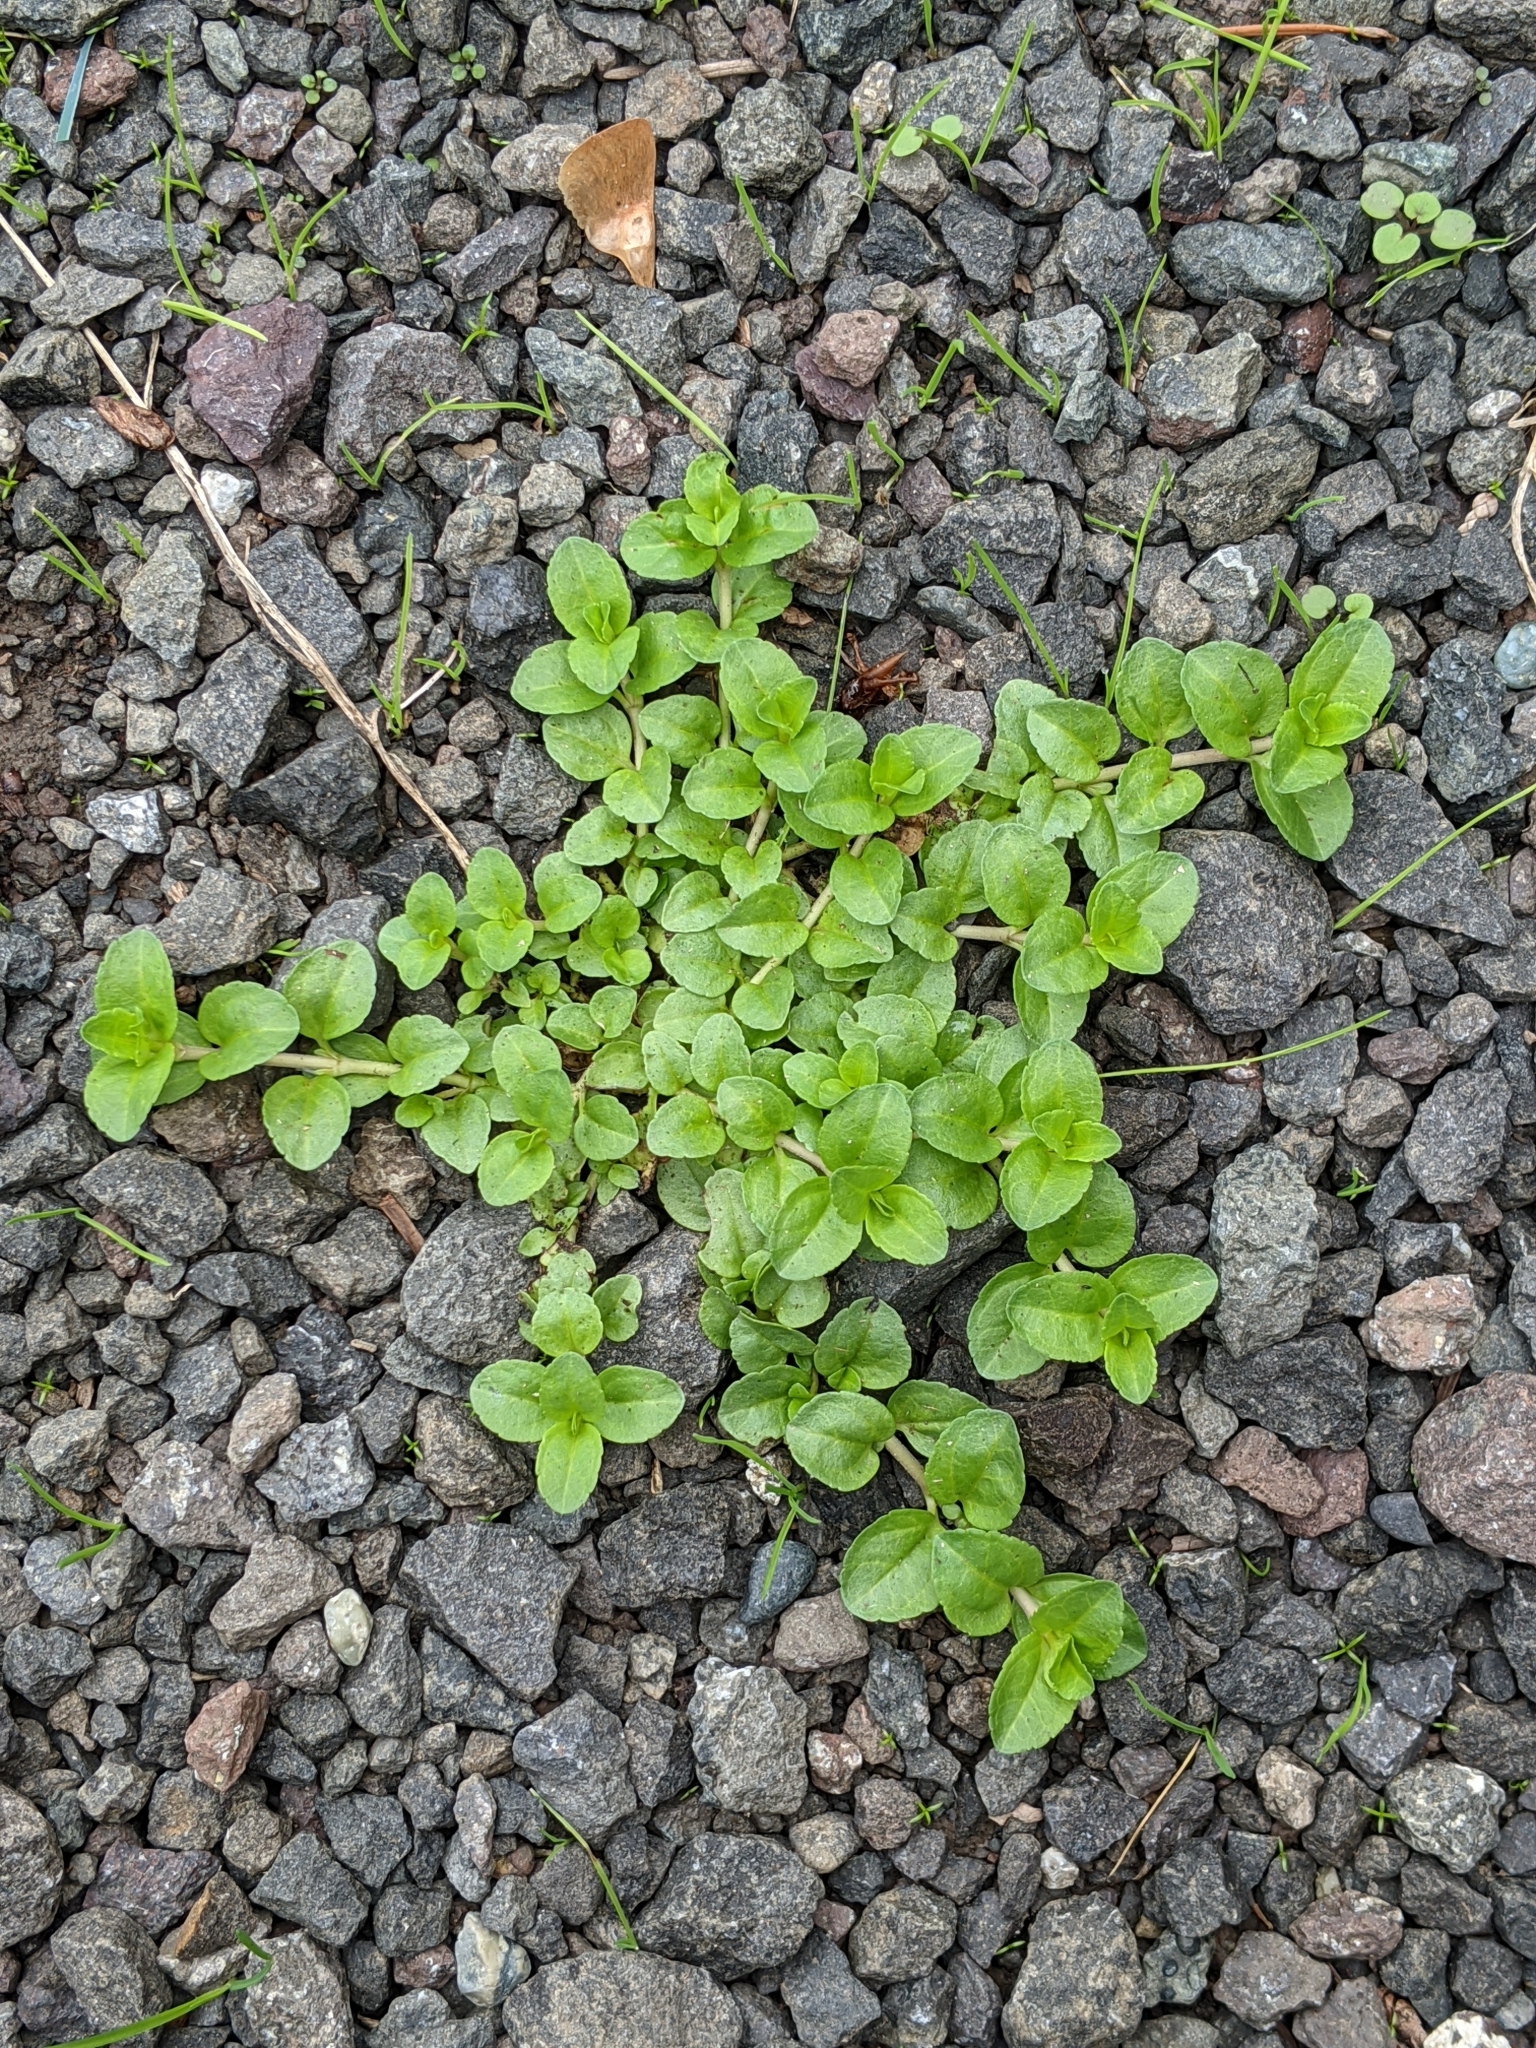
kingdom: Plantae
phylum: Tracheophyta
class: Magnoliopsida
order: Lamiales
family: Plantaginaceae
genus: Veronica
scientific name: Veronica serpyllifolia
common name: Thyme-leaved speedwell
